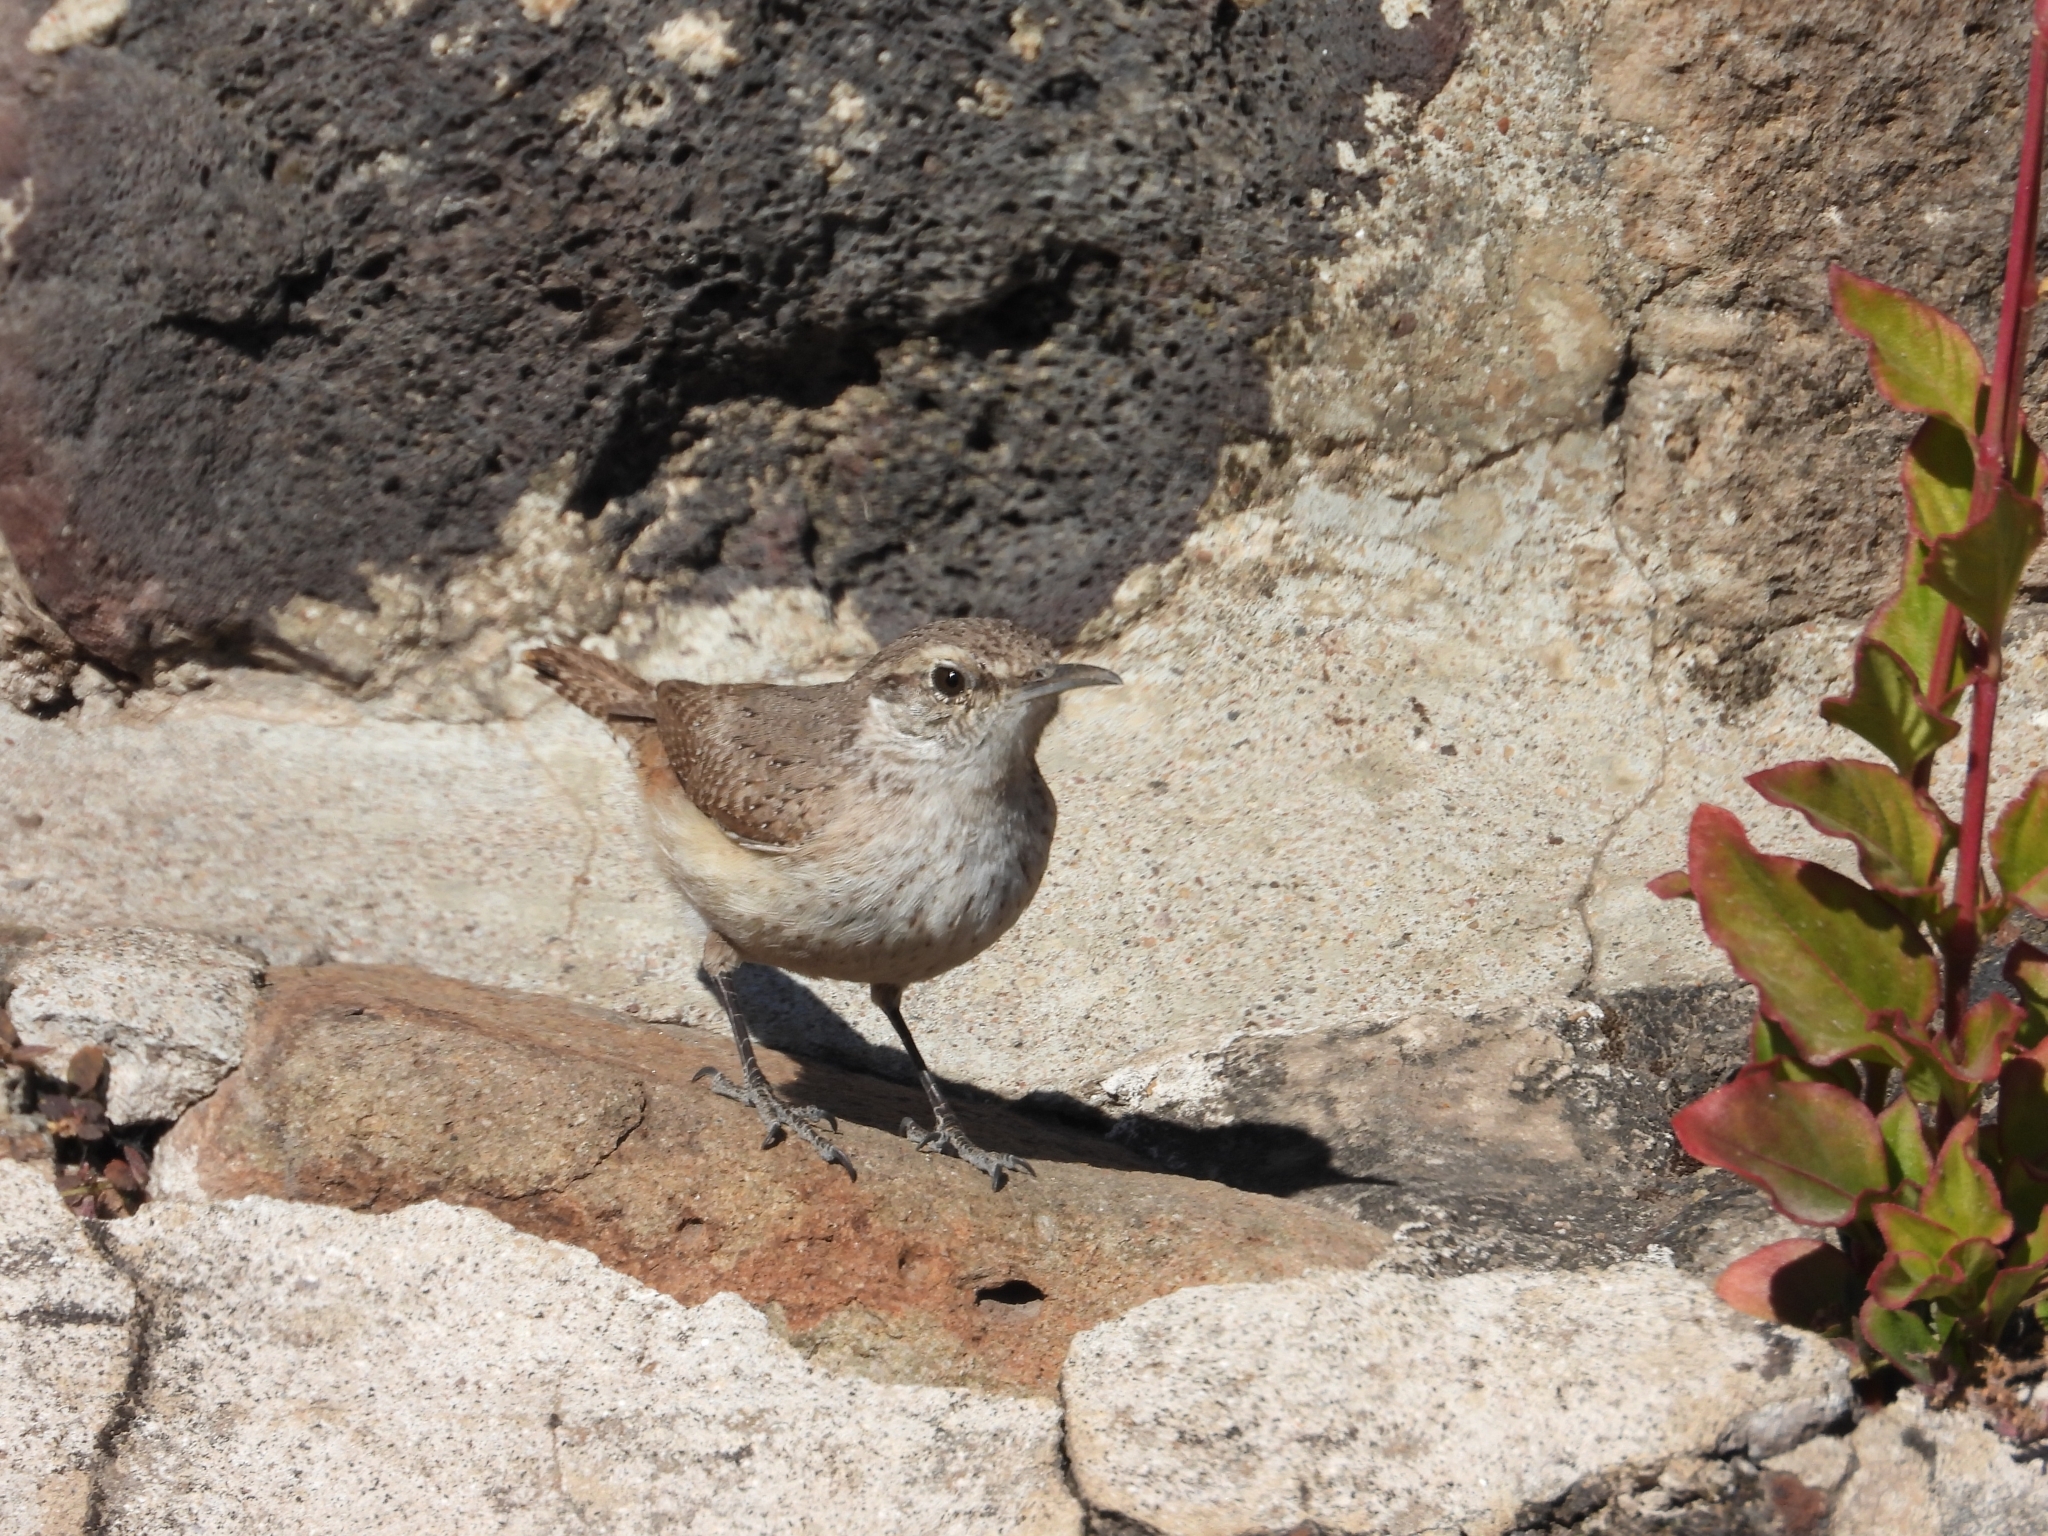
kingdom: Animalia
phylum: Chordata
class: Aves
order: Passeriformes
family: Troglodytidae
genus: Salpinctes
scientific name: Salpinctes obsoletus
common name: Rock wren
